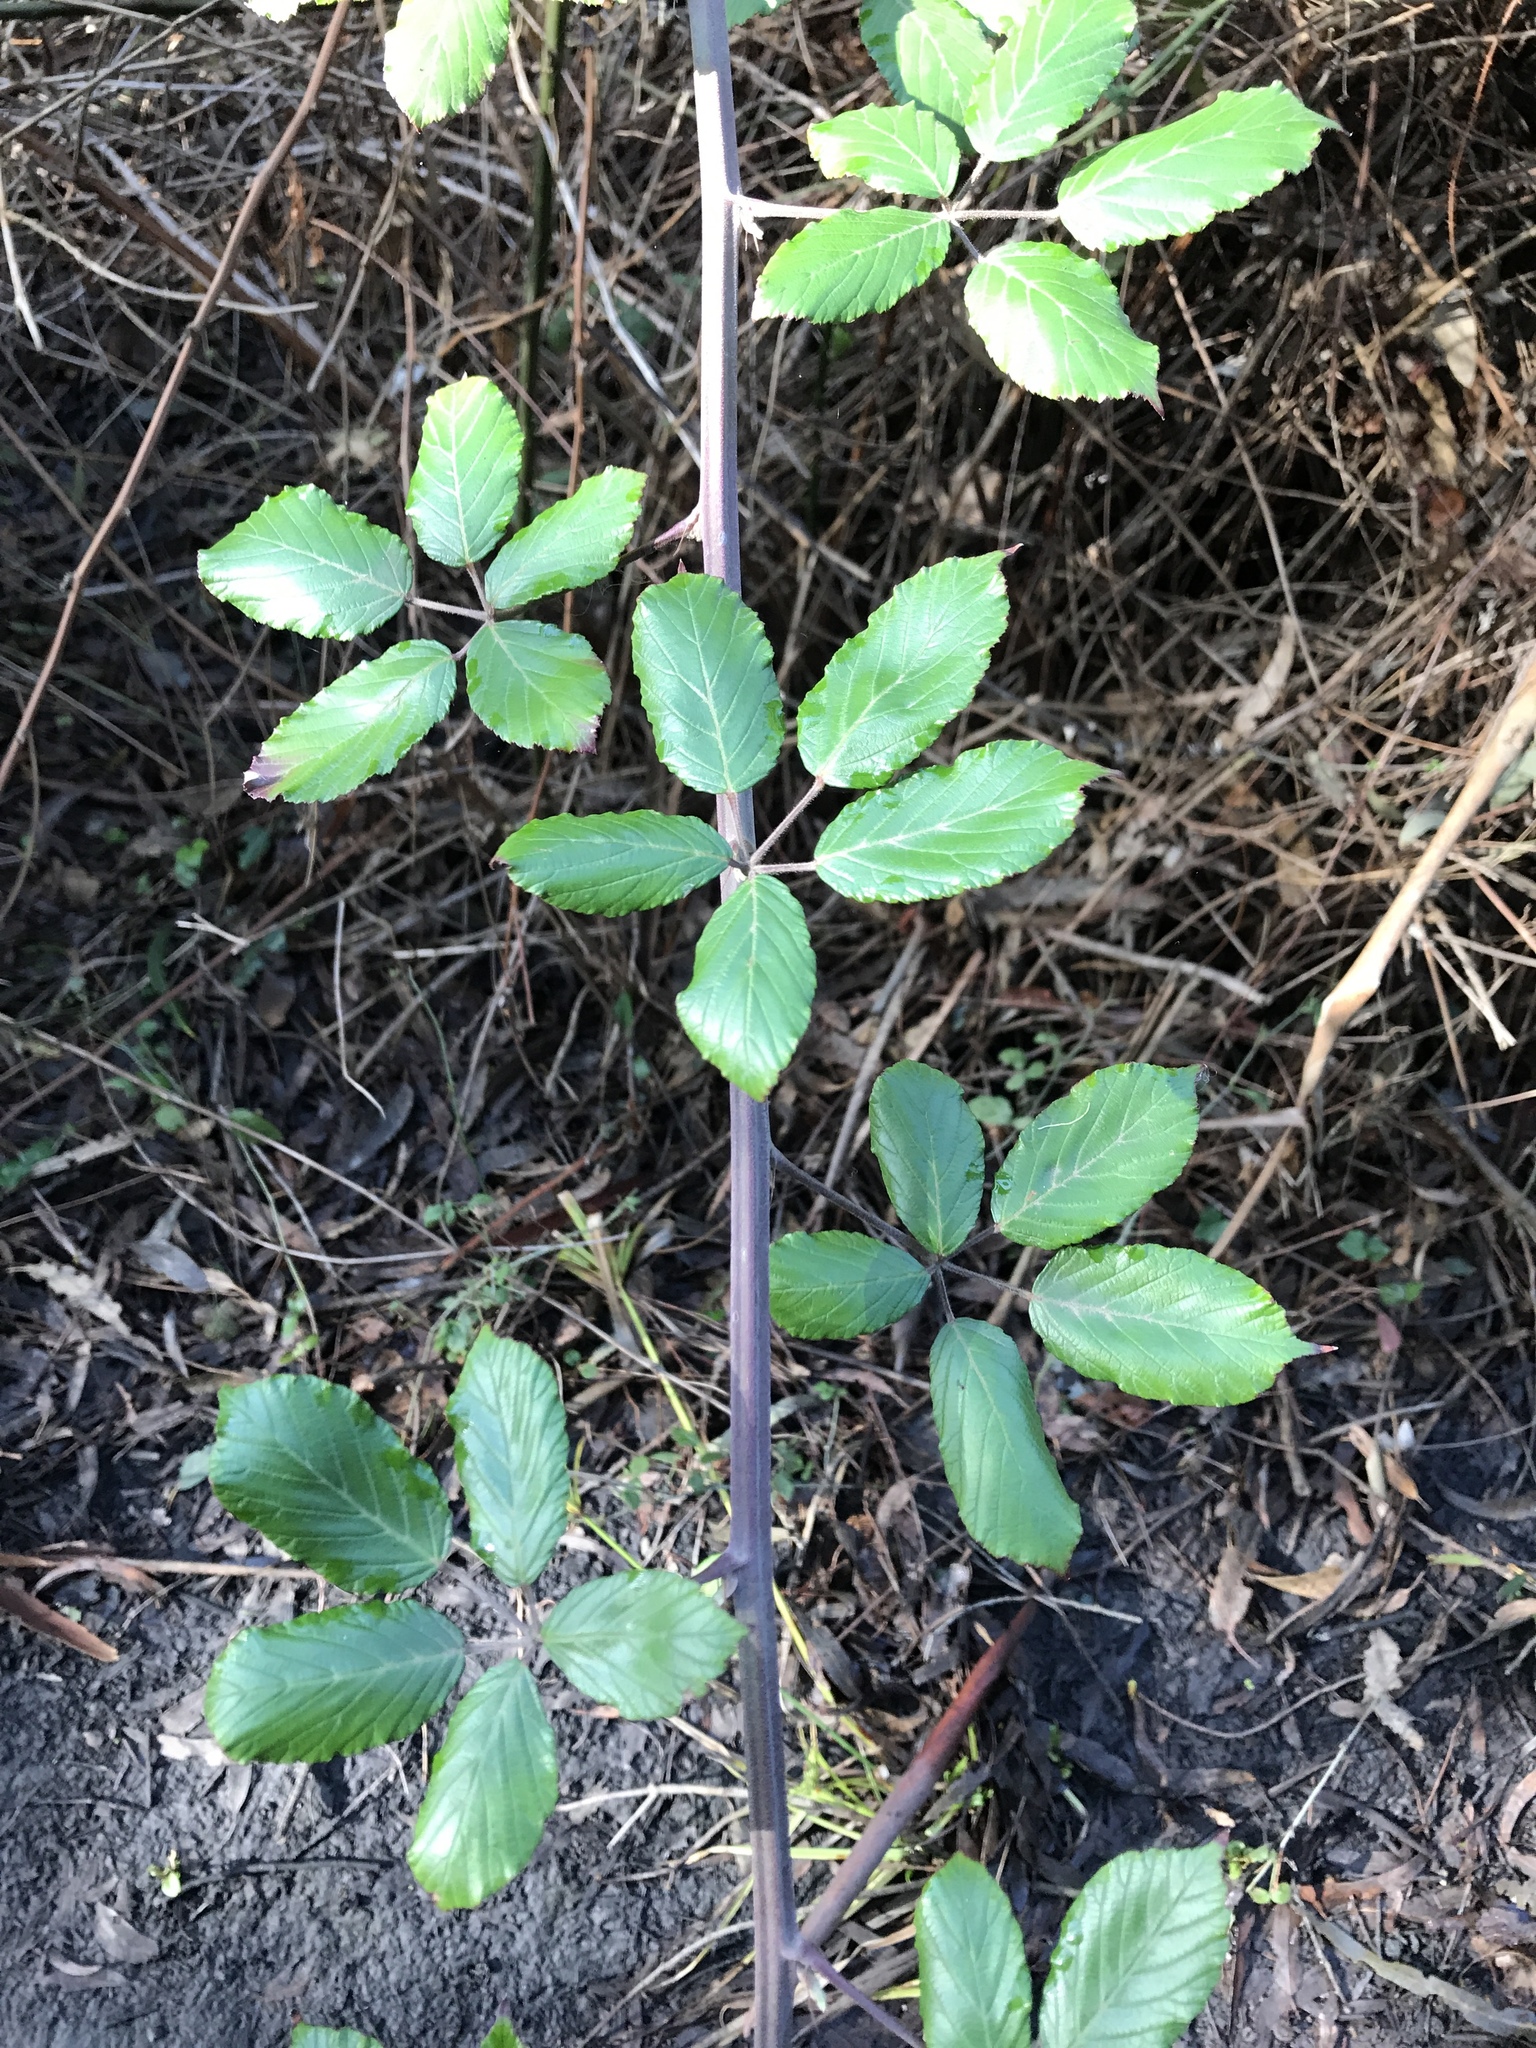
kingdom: Plantae
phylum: Tracheophyta
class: Magnoliopsida
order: Rosales
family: Rosaceae
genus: Rubus
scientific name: Rubus ulmifolius
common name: Elmleaf blackberry
